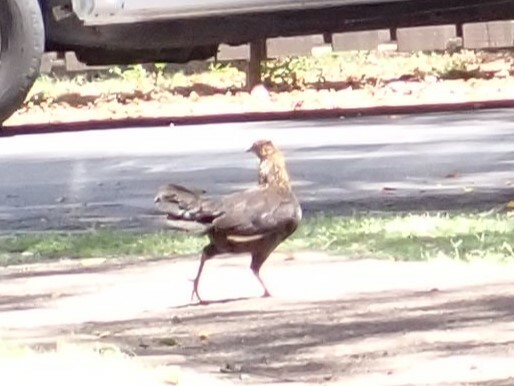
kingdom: Animalia
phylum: Chordata
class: Aves
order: Galliformes
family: Phasianidae
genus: Gallus
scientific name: Gallus gallus
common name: Red junglefowl
